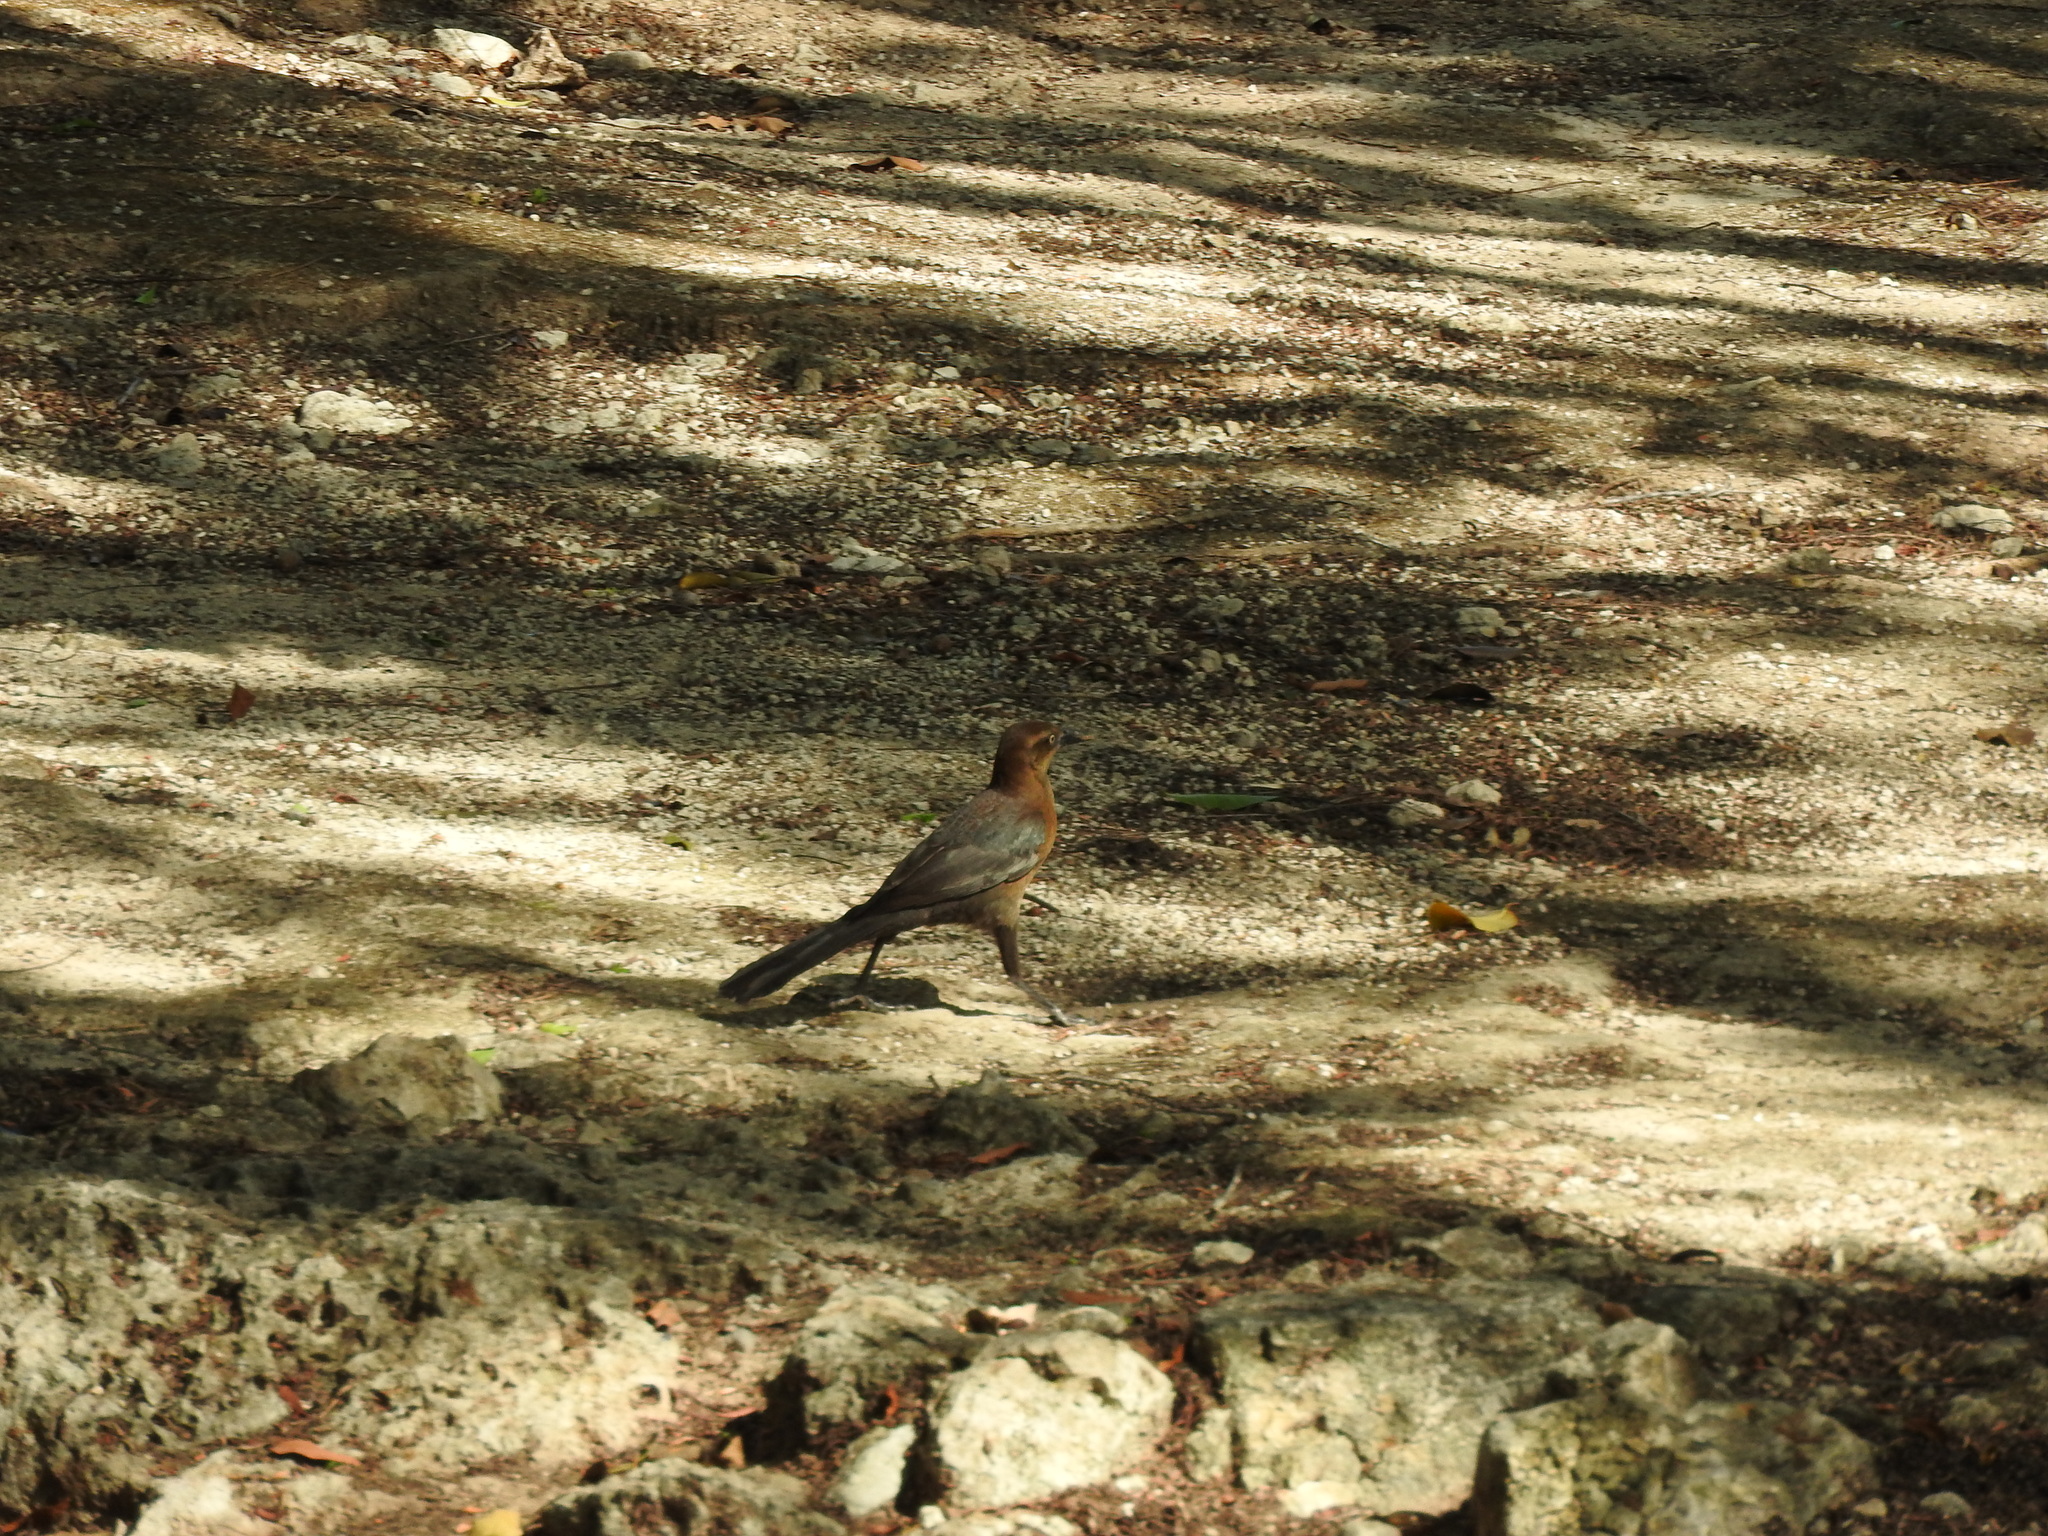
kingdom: Animalia
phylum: Chordata
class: Aves
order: Passeriformes
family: Icteridae
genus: Quiscalus
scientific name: Quiscalus mexicanus
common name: Great-tailed grackle
